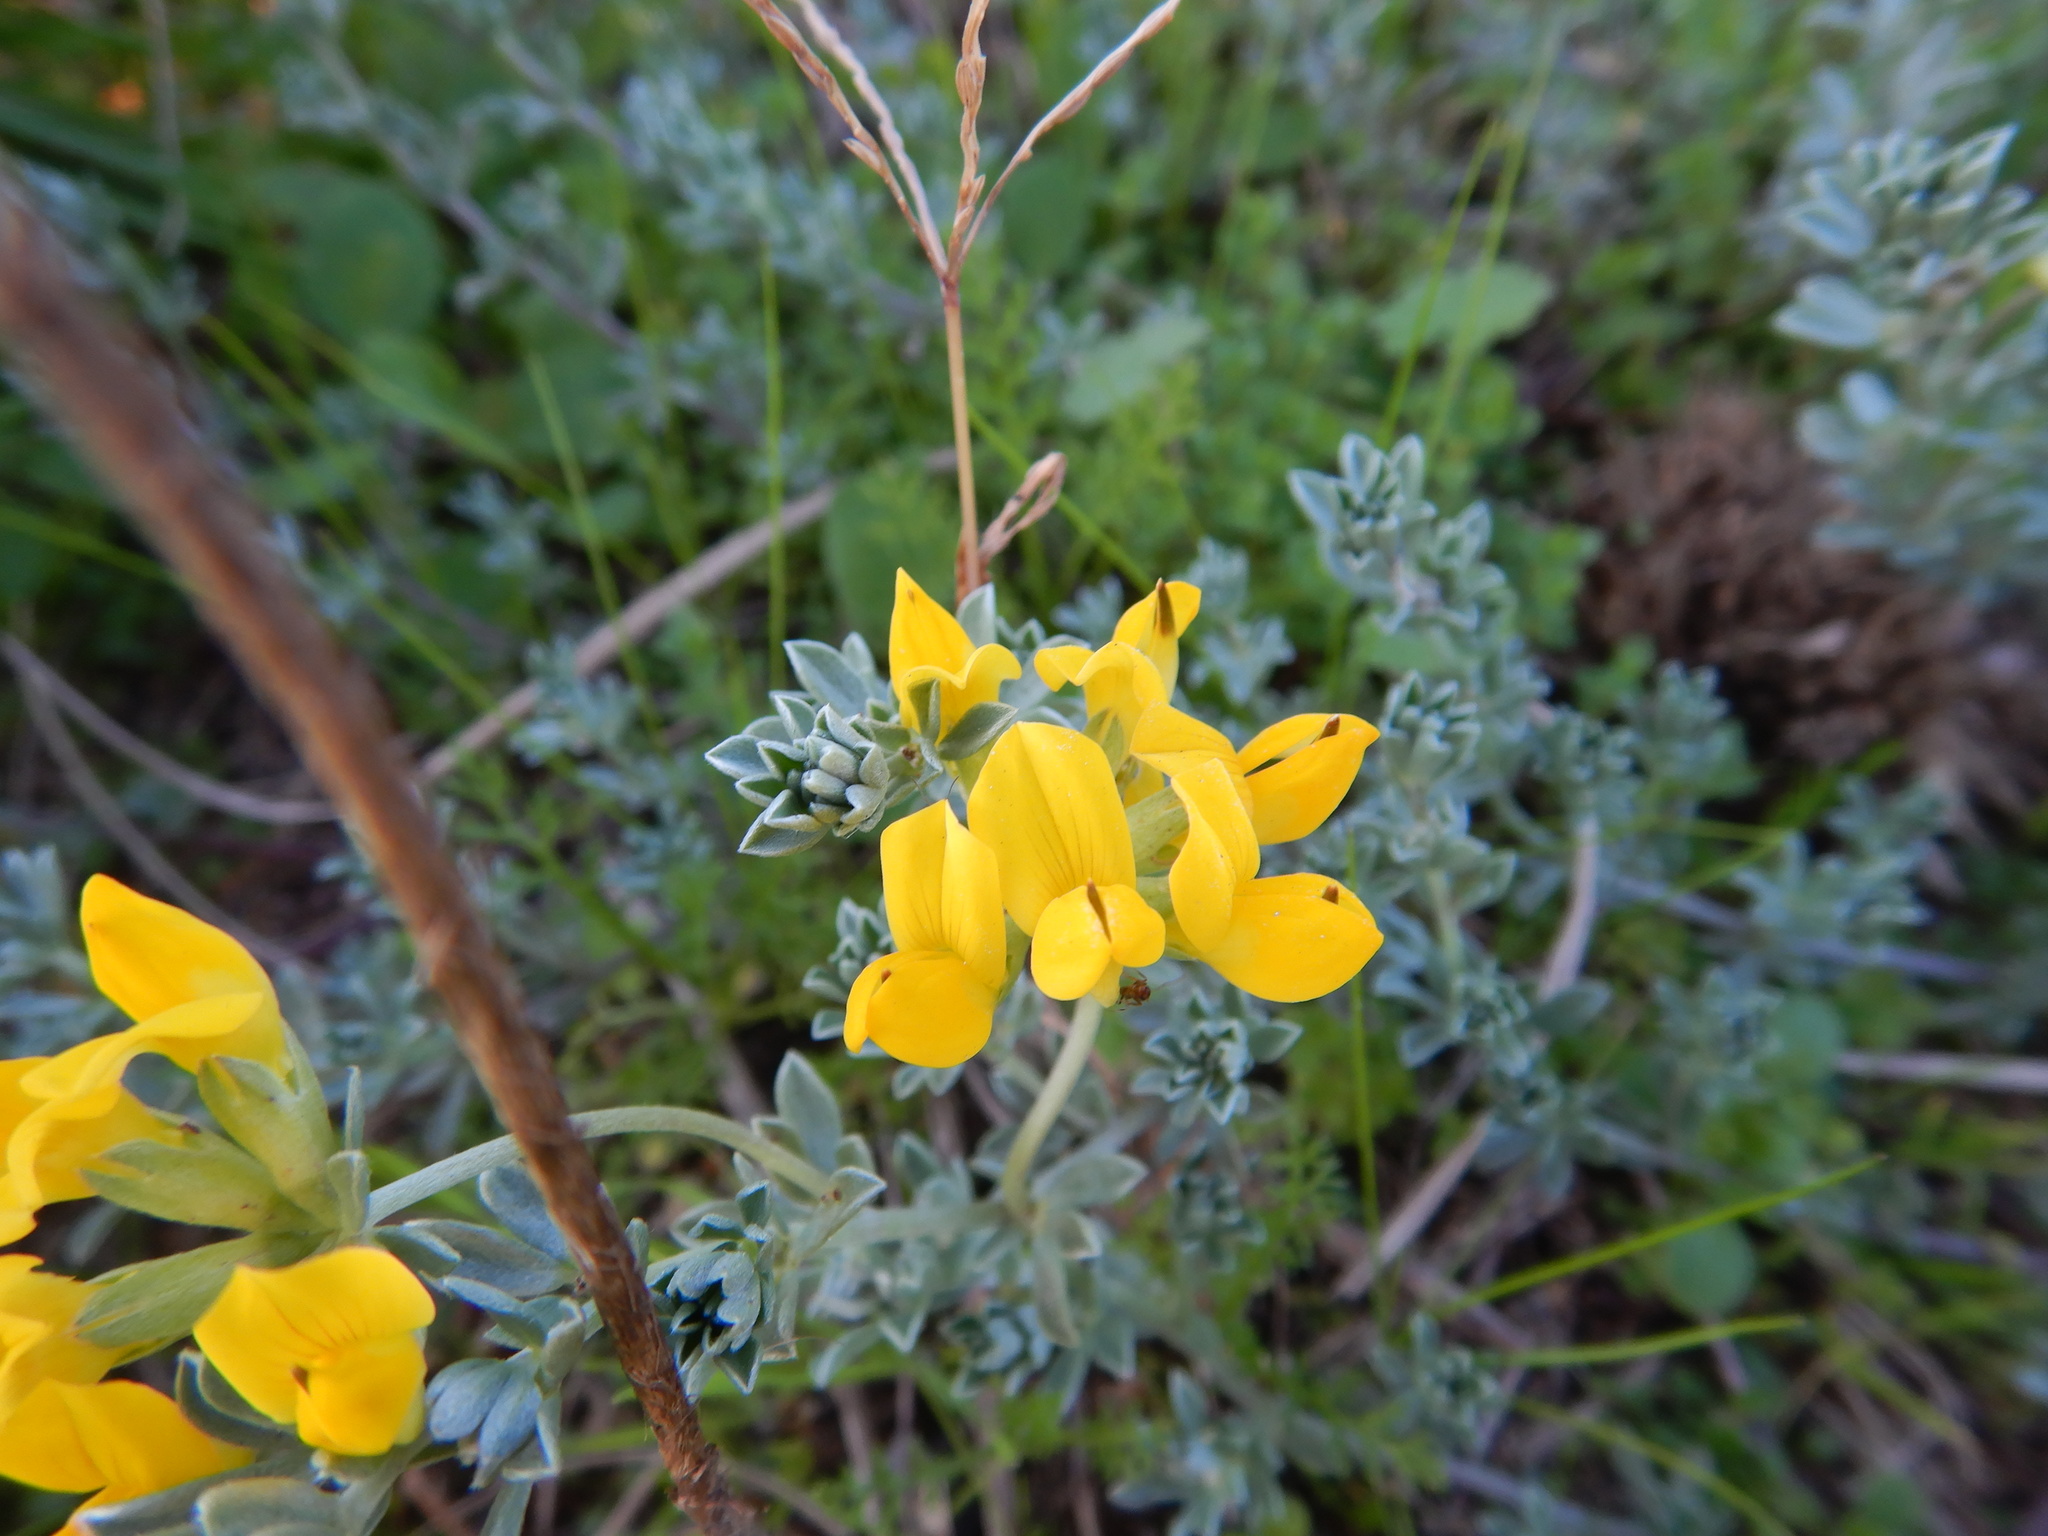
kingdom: Plantae
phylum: Tracheophyta
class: Magnoliopsida
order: Fabales
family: Fabaceae
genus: Lotus
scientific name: Lotus creticus
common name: Cretan bird's-foot trefoil
